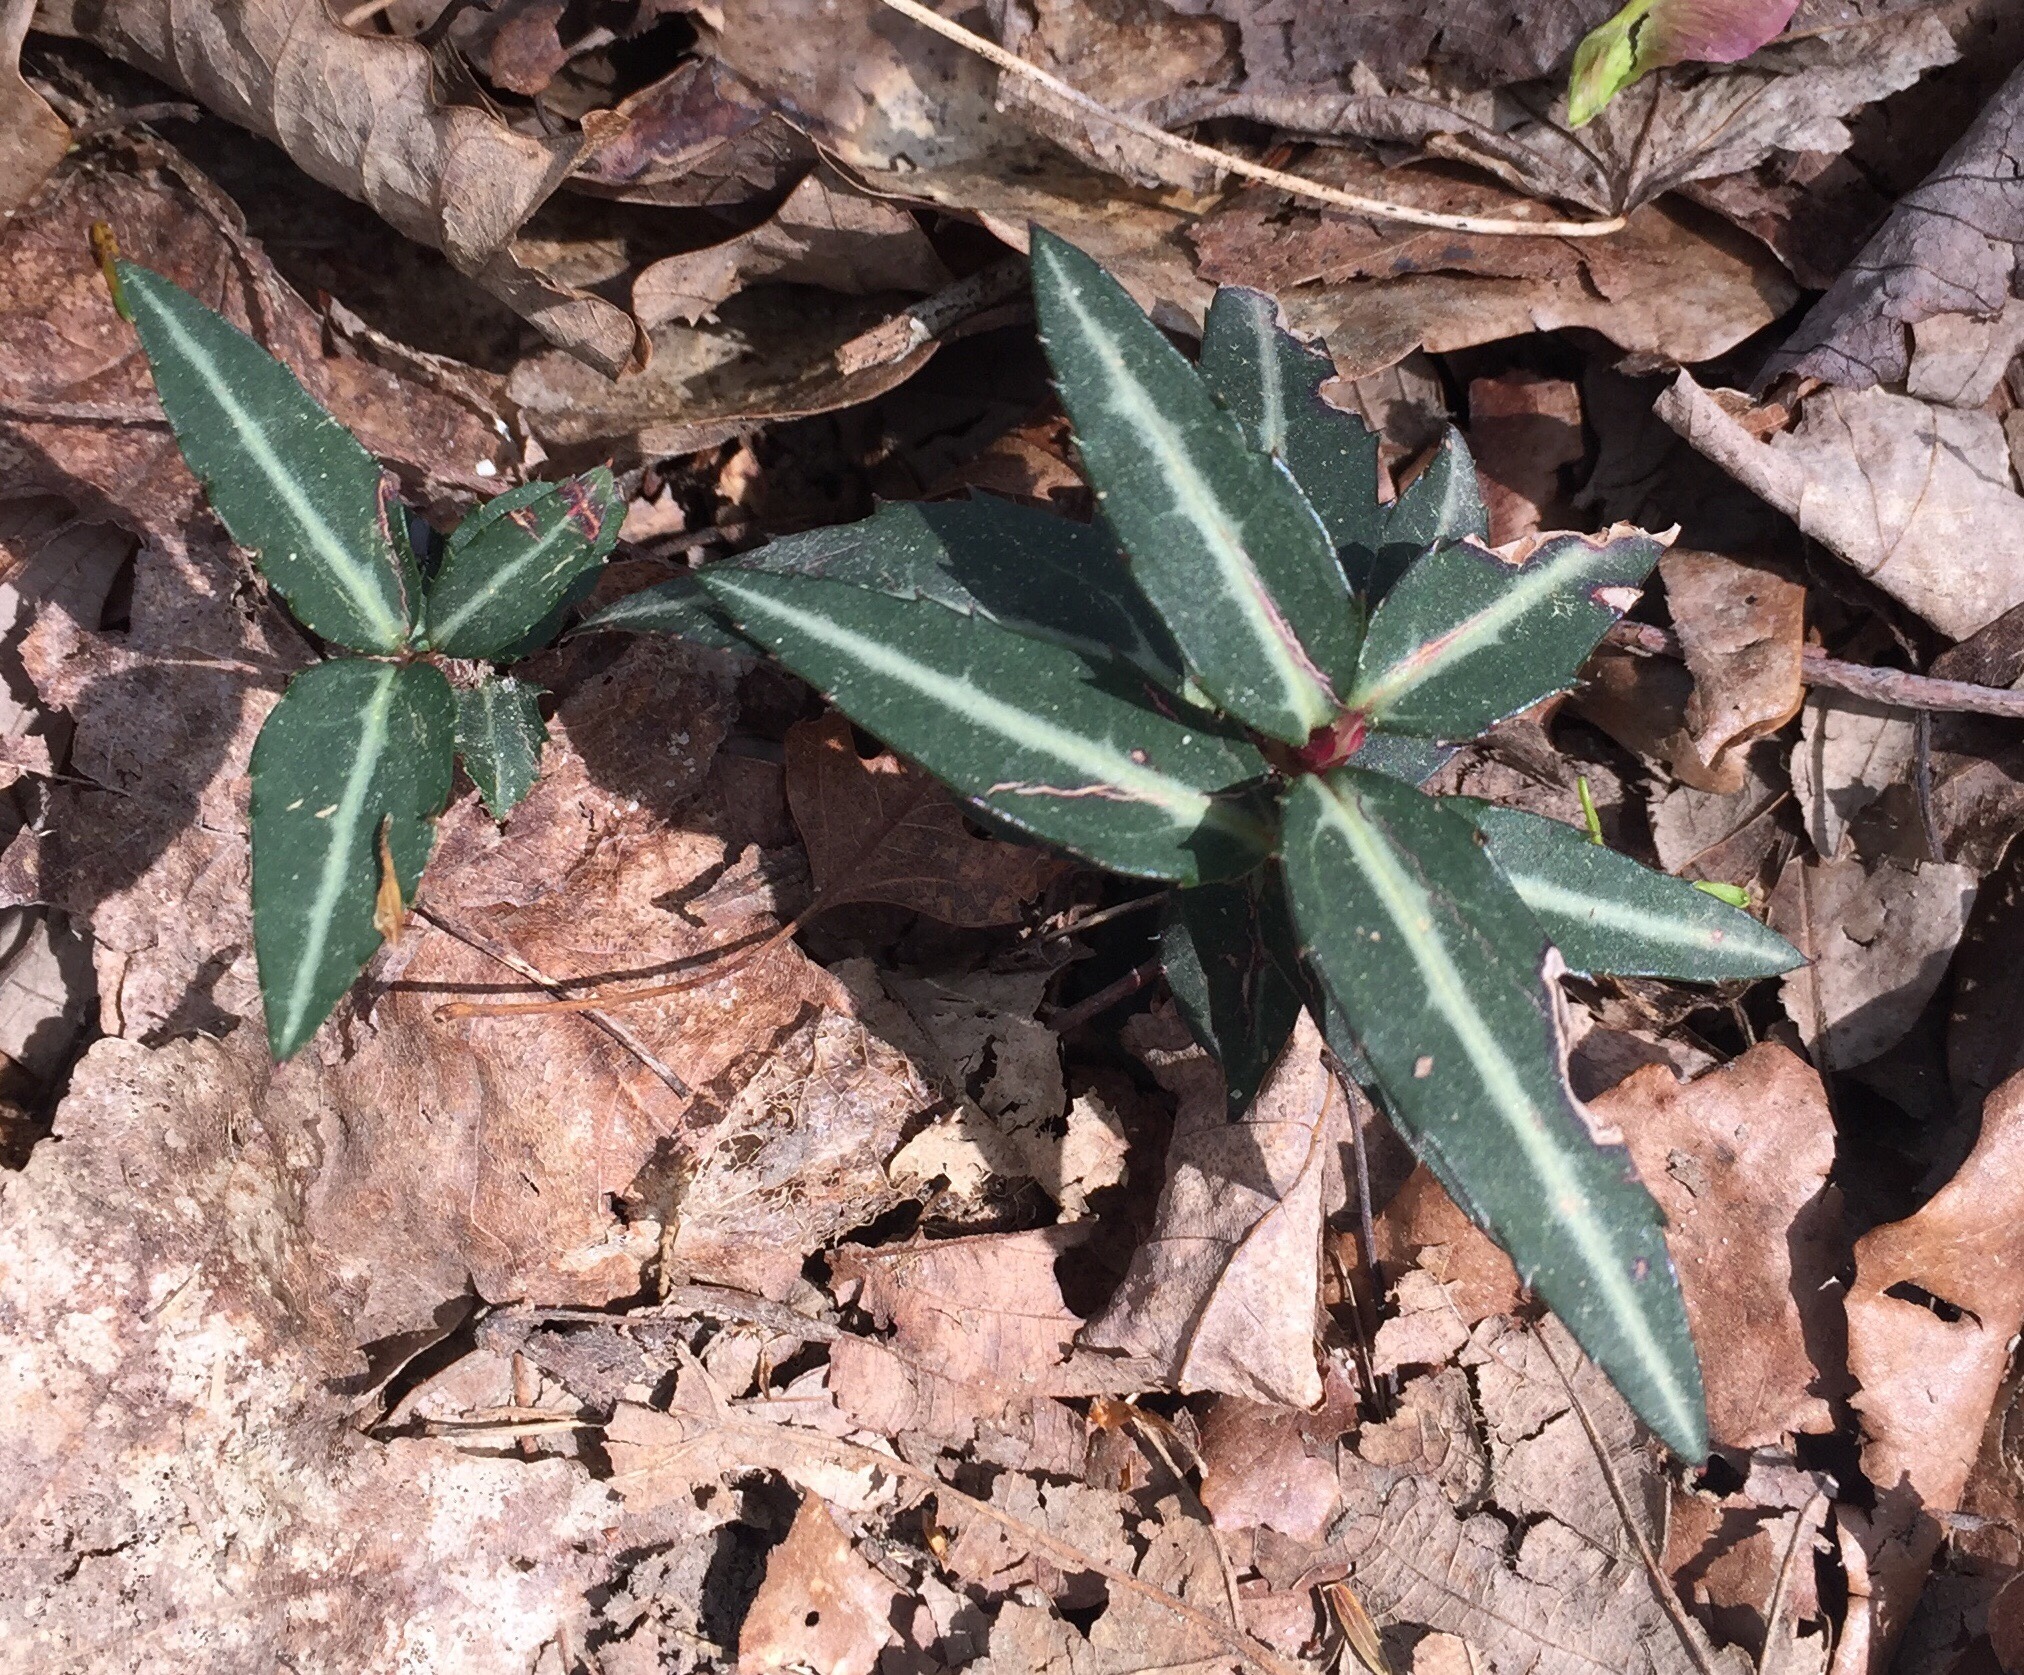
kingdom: Plantae
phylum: Tracheophyta
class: Magnoliopsida
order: Ericales
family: Ericaceae
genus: Chimaphila
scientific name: Chimaphila maculata
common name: Spotted pipsissewa
